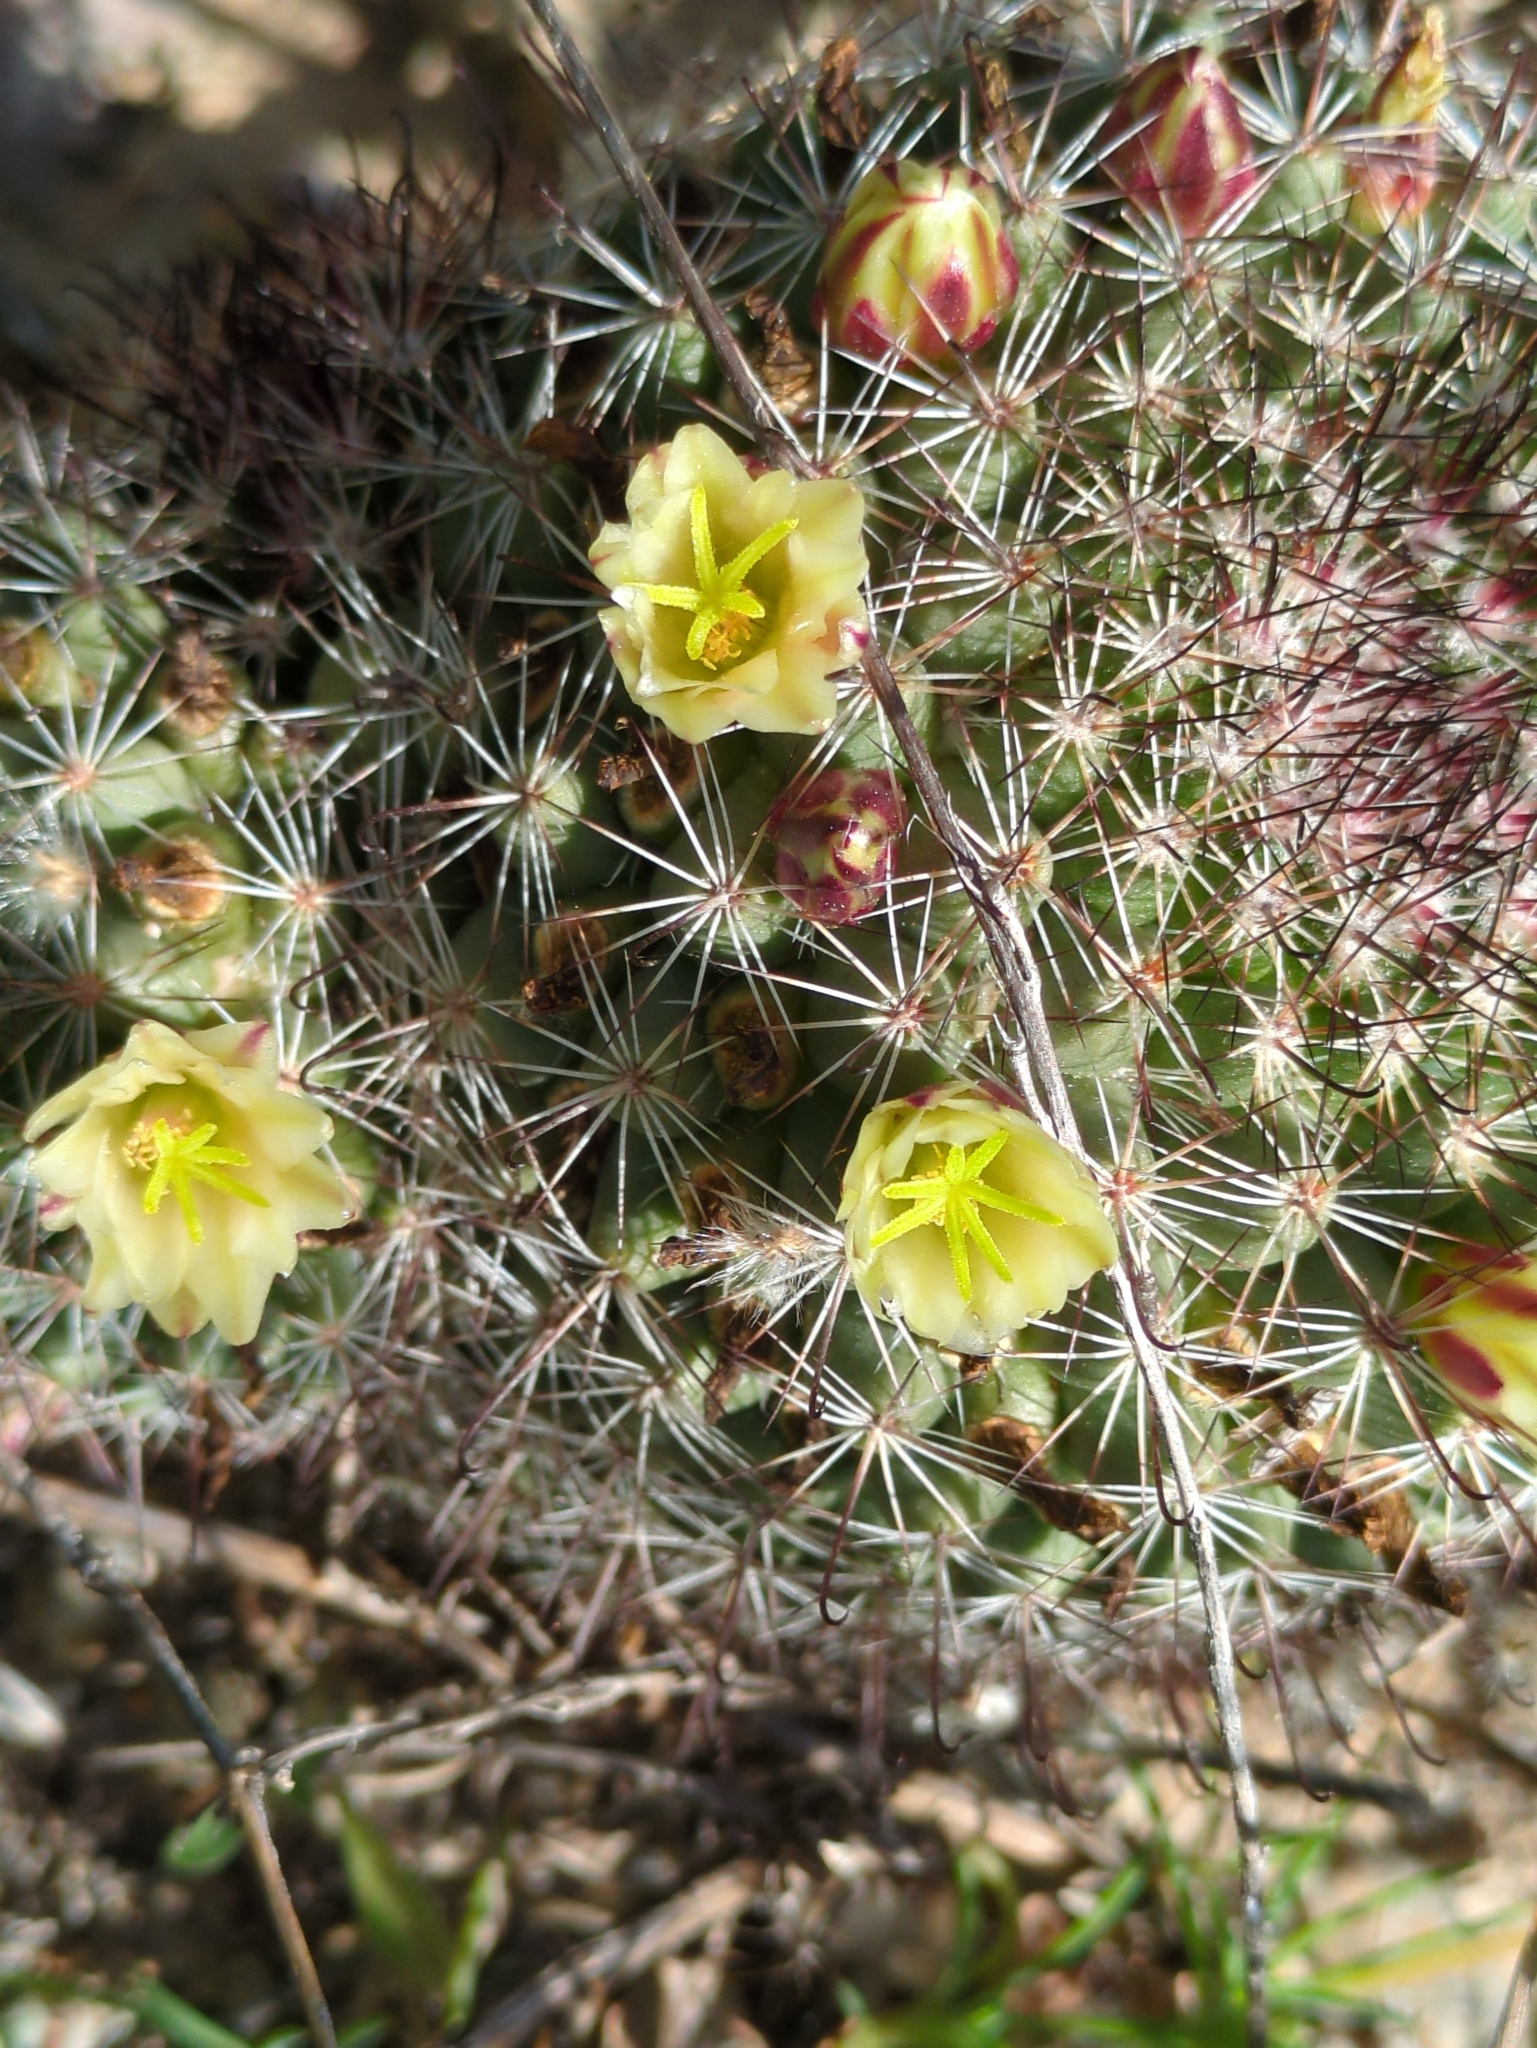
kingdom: Plantae
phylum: Tracheophyta
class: Magnoliopsida
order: Caryophyllales
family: Cactaceae
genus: Cochemiea
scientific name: Cochemiea dioica
